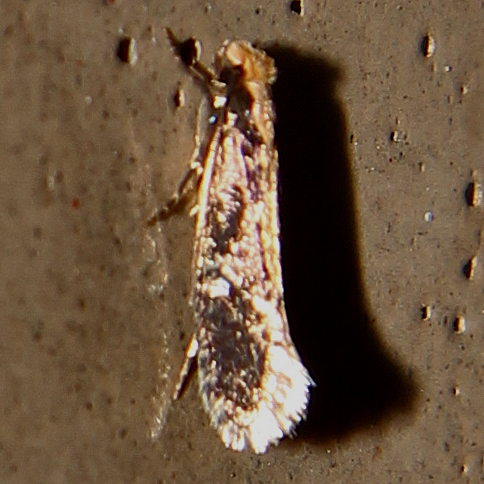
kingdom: Animalia
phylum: Arthropoda
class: Insecta
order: Lepidoptera
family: Tineidae
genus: Monopis
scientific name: Monopis crocicapitella
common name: Moth
